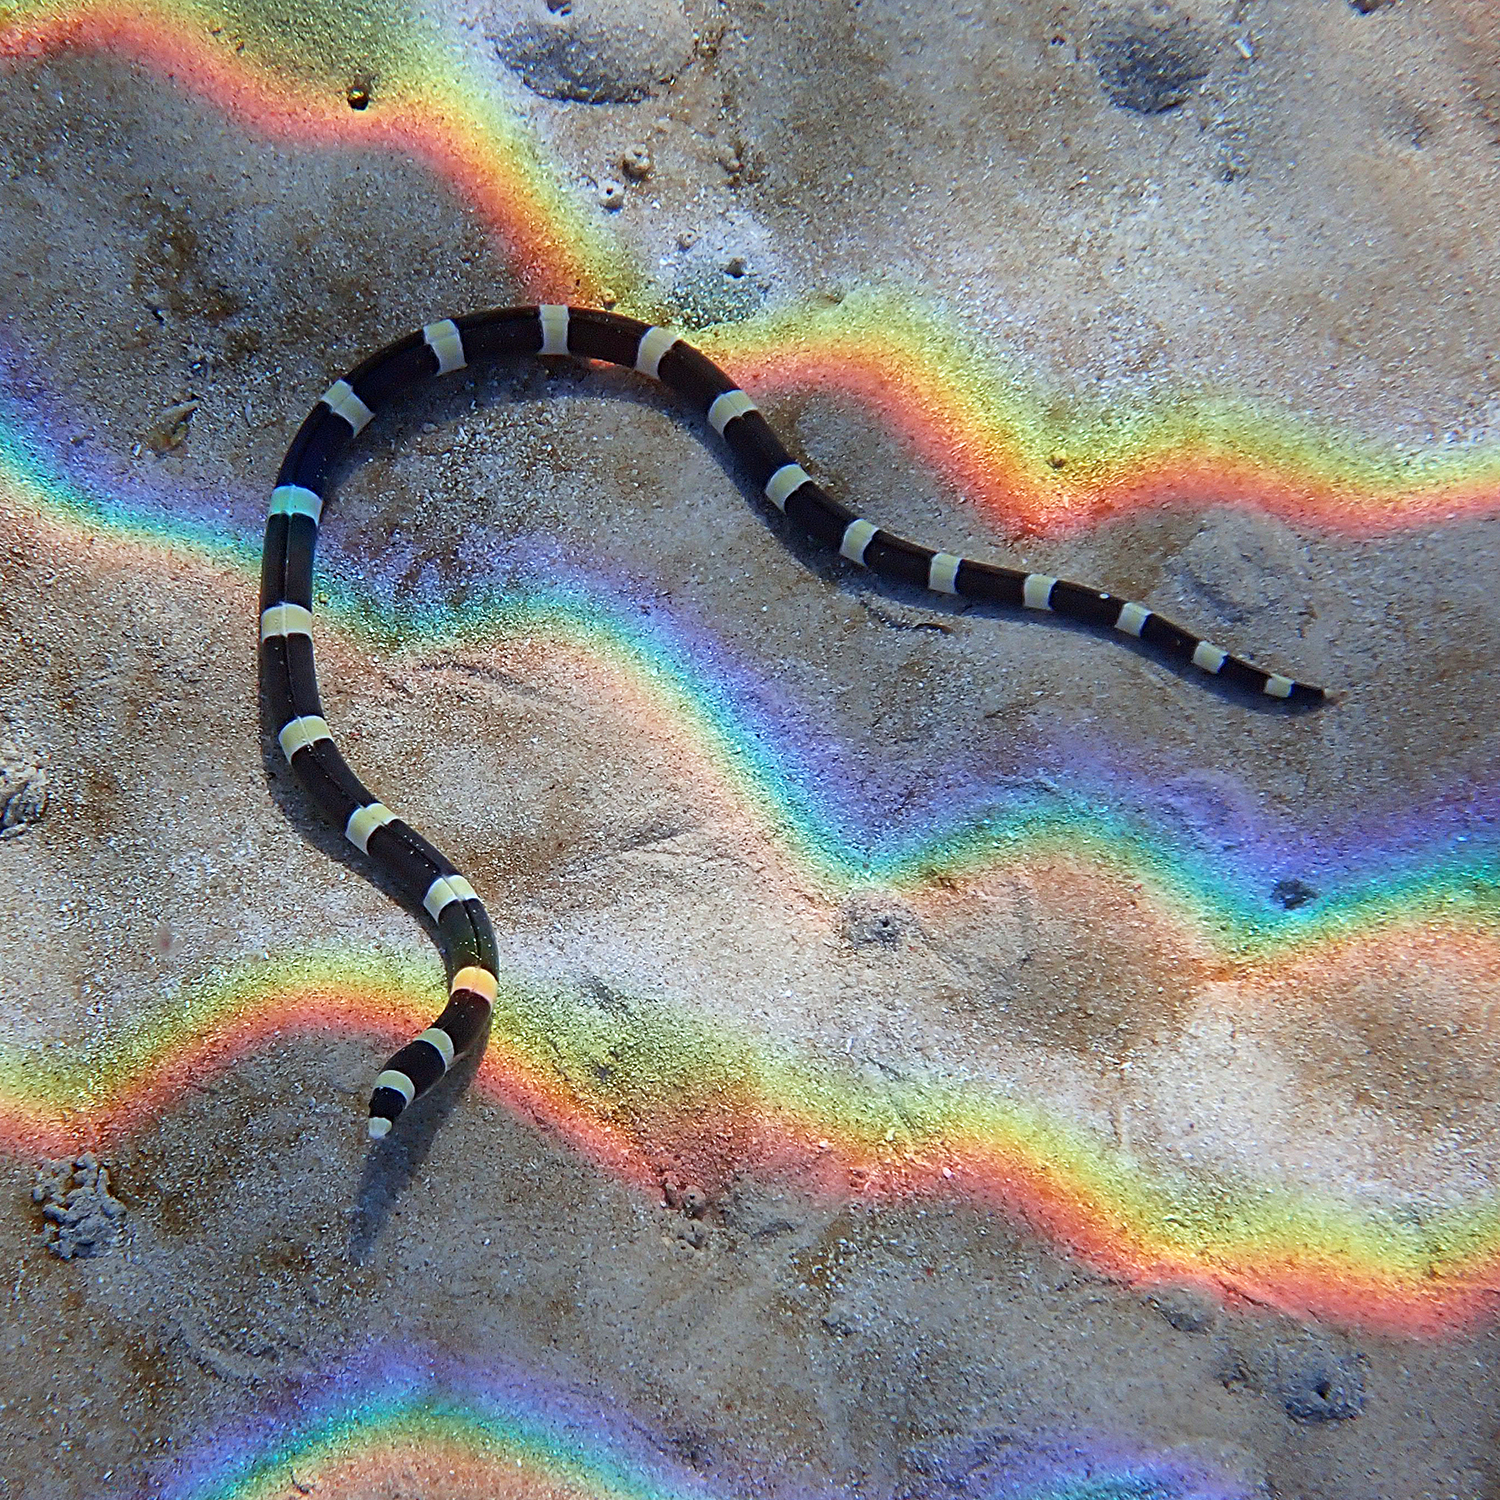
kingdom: Animalia
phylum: Chordata
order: Anguilliformes
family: Ophichthidae
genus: Leiuranus
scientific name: Leiuranus semicinctus
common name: Saddled snake eel
